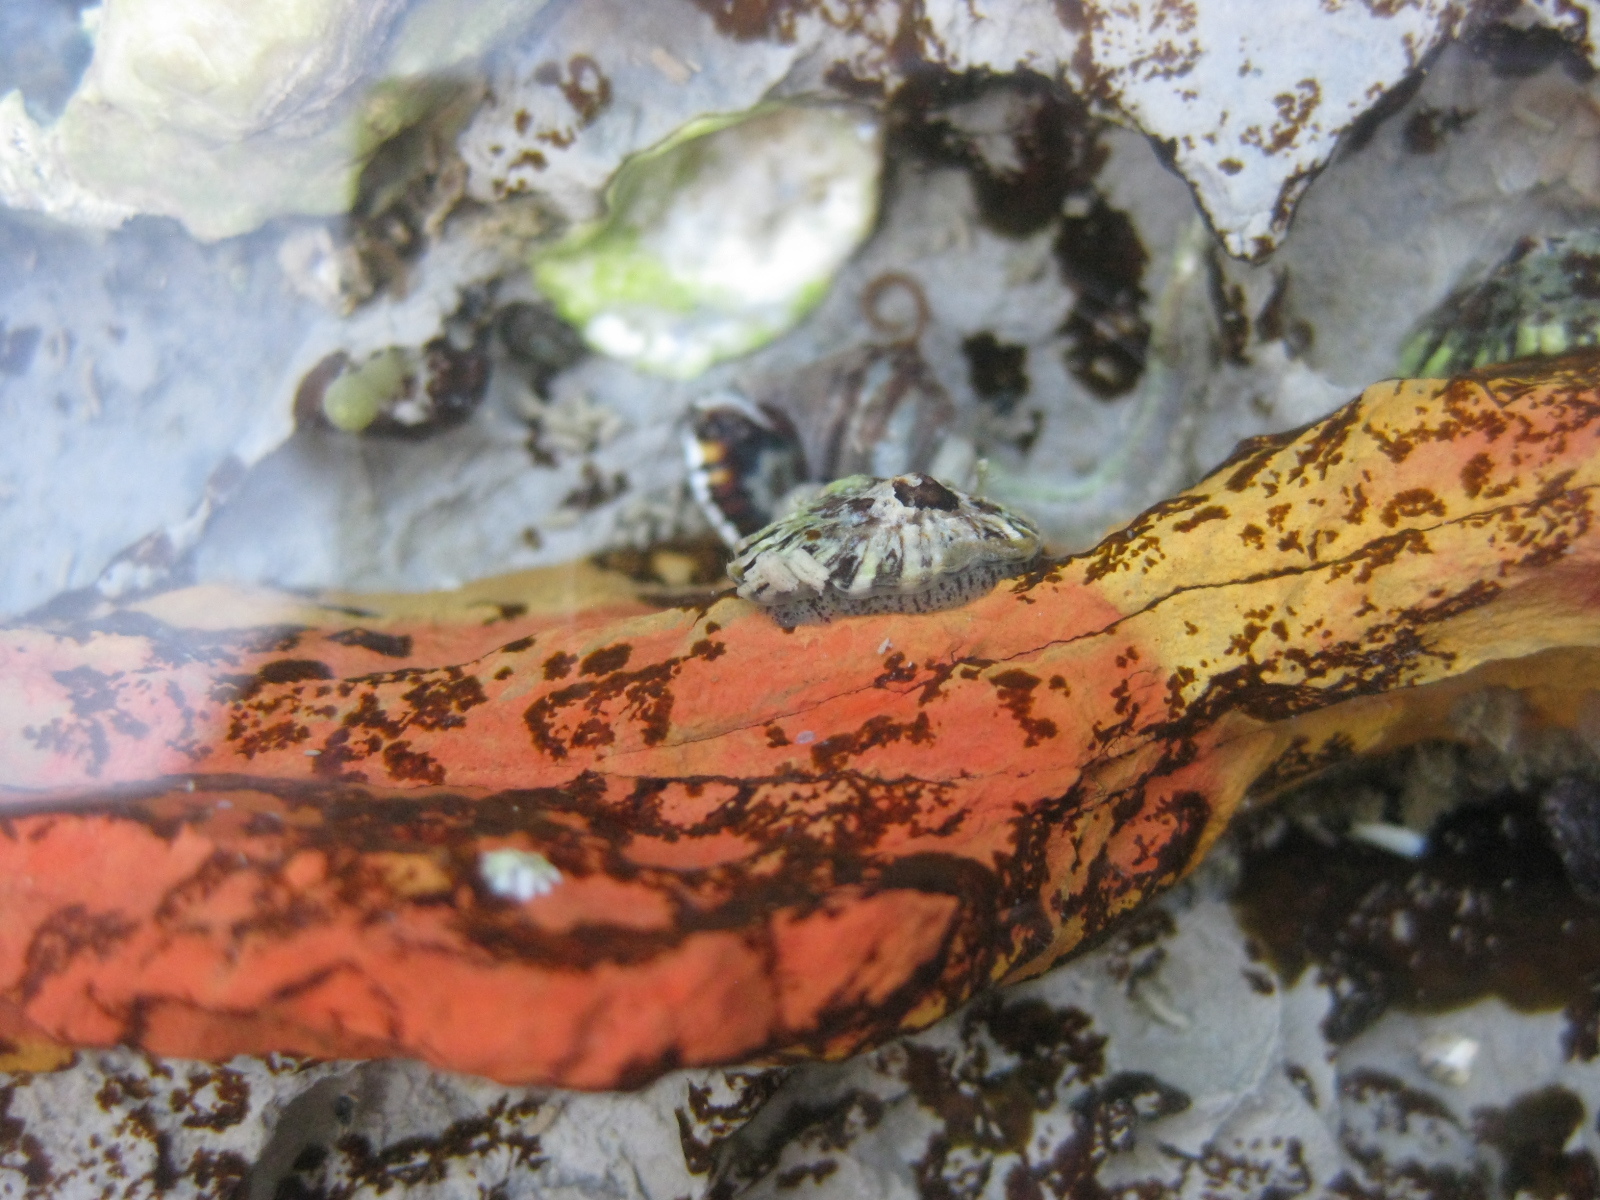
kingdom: Animalia
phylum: Mollusca
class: Gastropoda
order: Siphonariida
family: Siphonariidae
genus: Siphonaria
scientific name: Siphonaria australis
